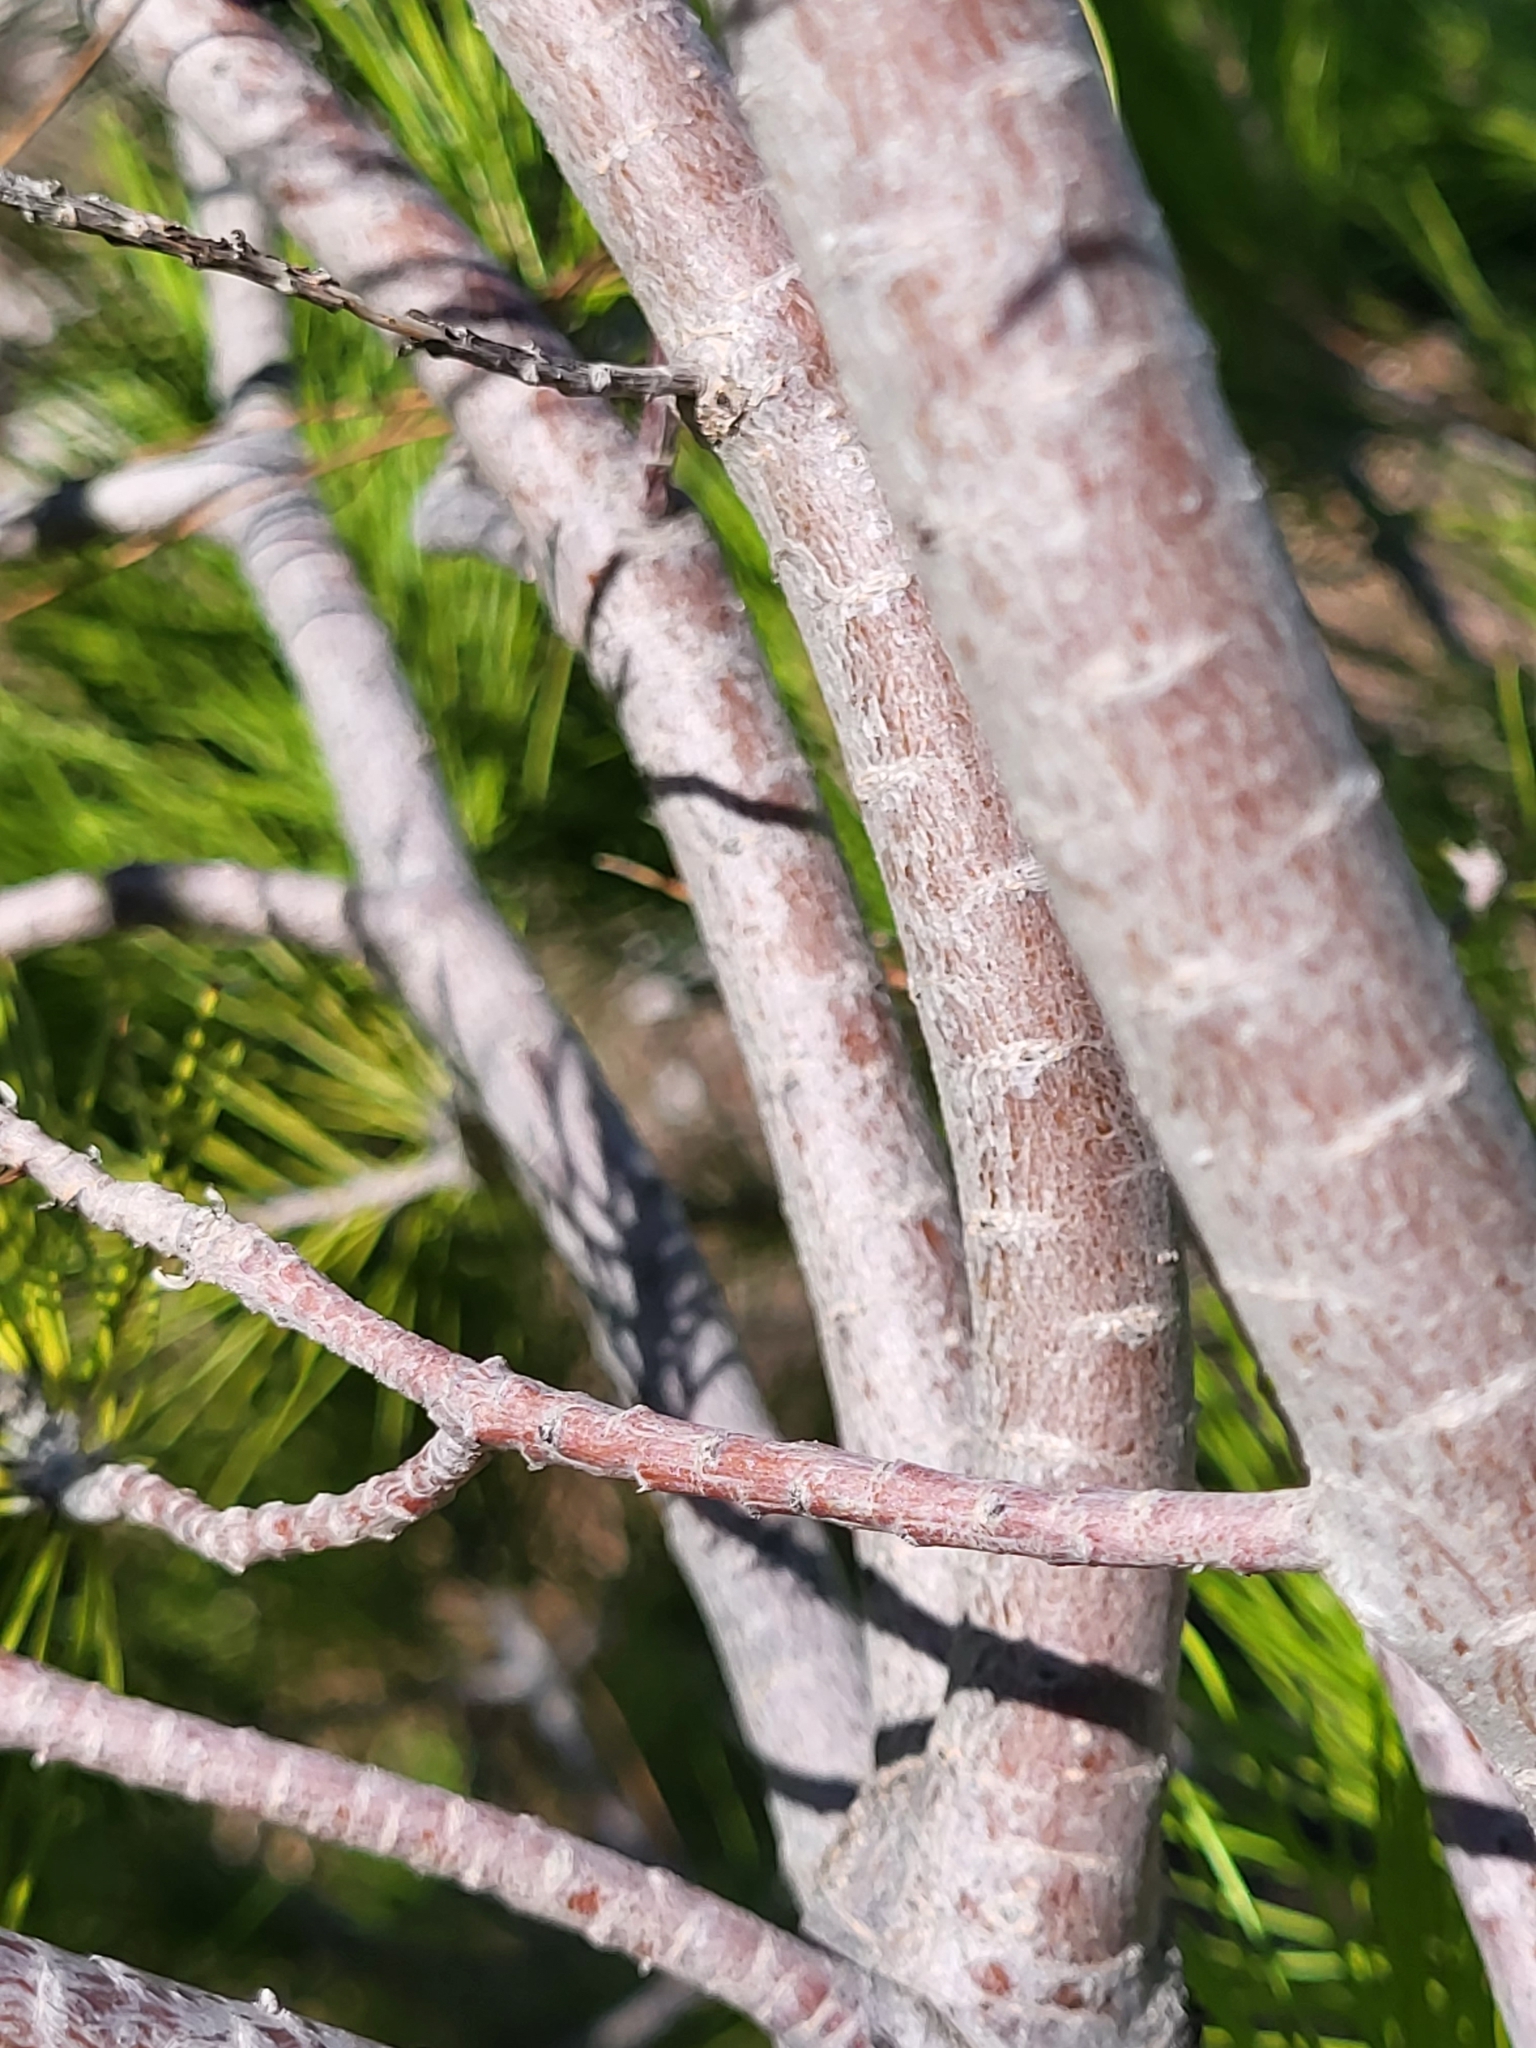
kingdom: Plantae
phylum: Tracheophyta
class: Pinopsida
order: Pinales
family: Pinaceae
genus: Pinus
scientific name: Pinus halepensis
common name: Aleppo pine
